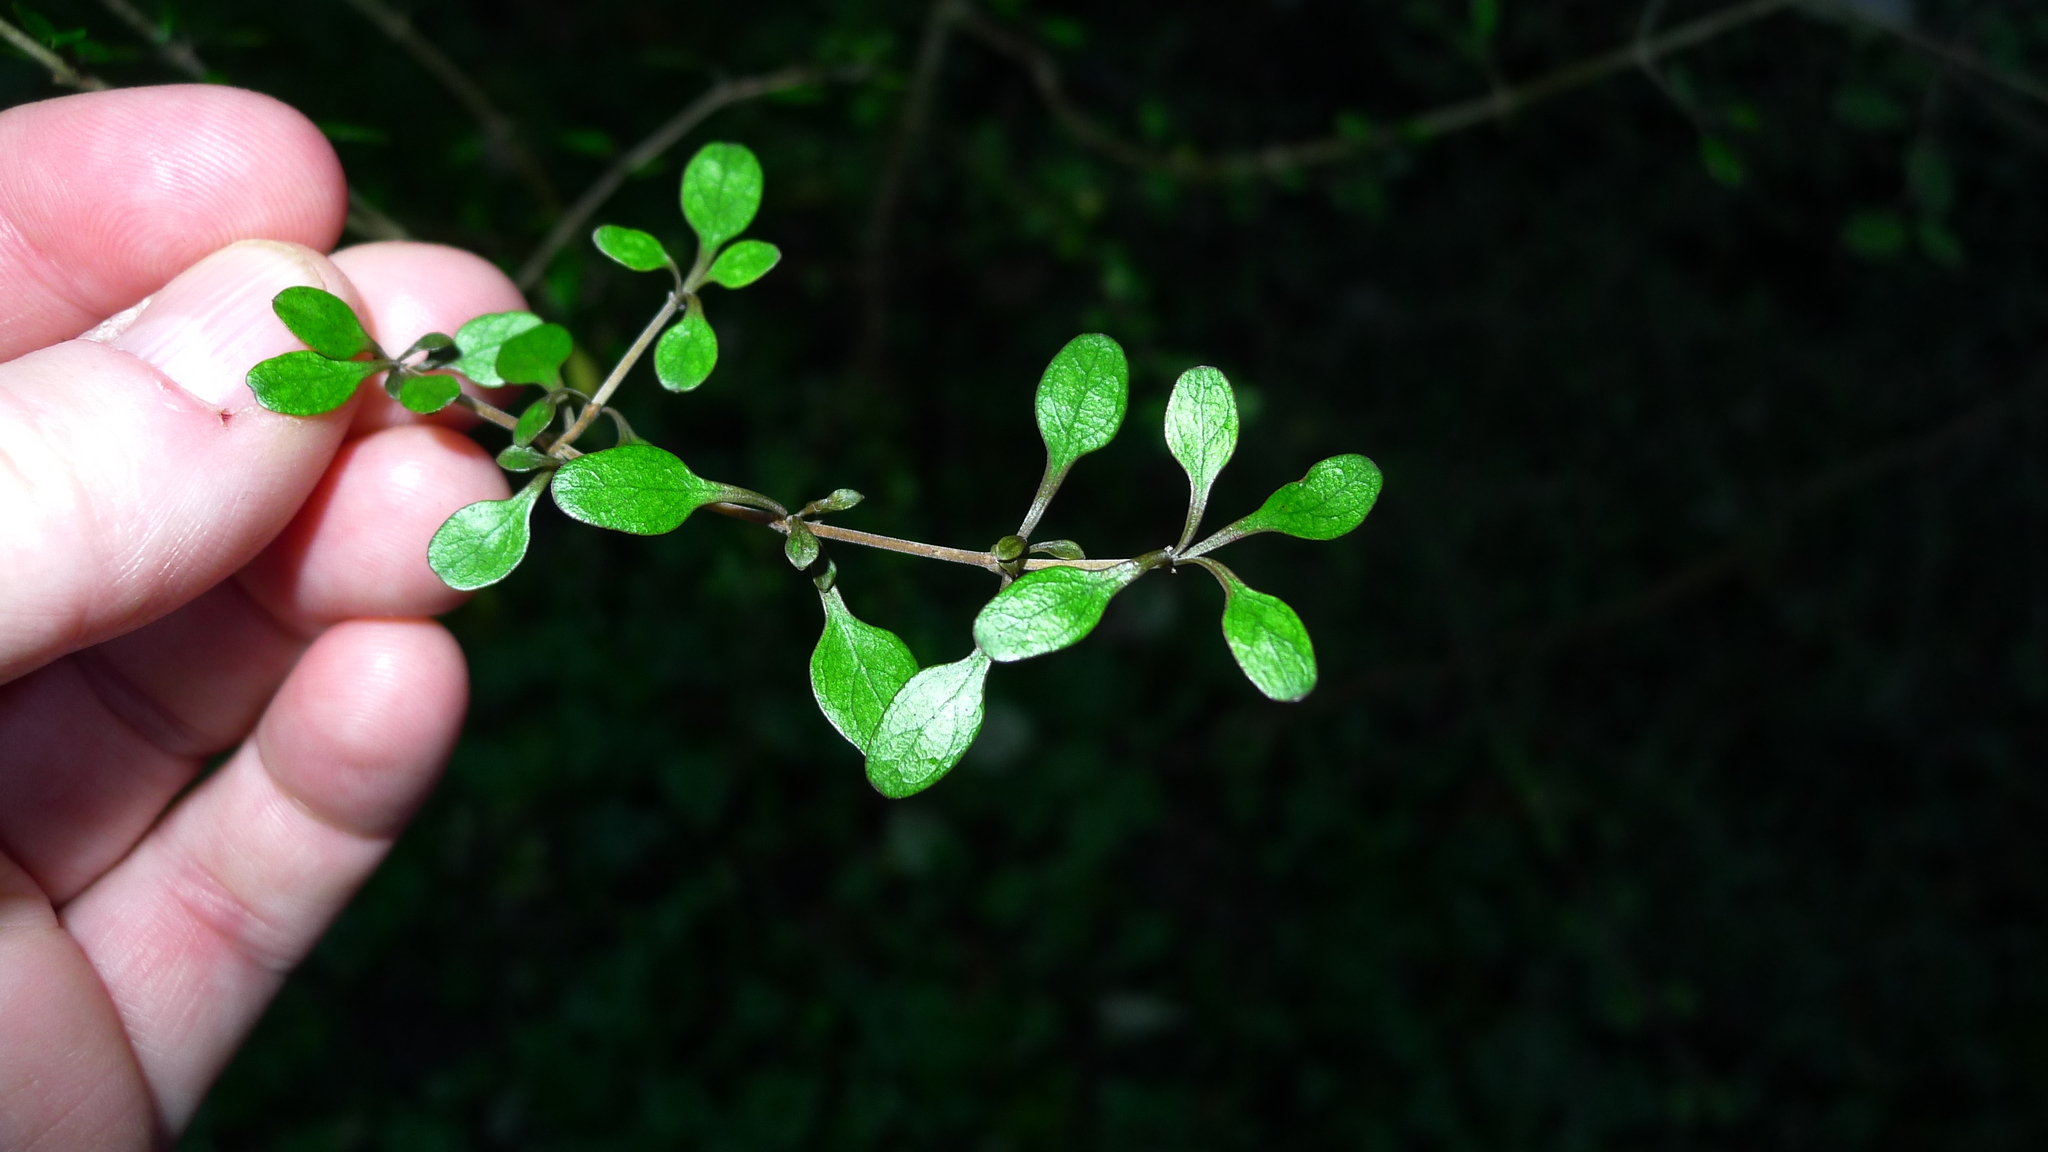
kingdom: Plantae
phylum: Tracheophyta
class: Magnoliopsida
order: Gentianales
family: Rubiaceae
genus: Coprosma
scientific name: Coprosma rigida
